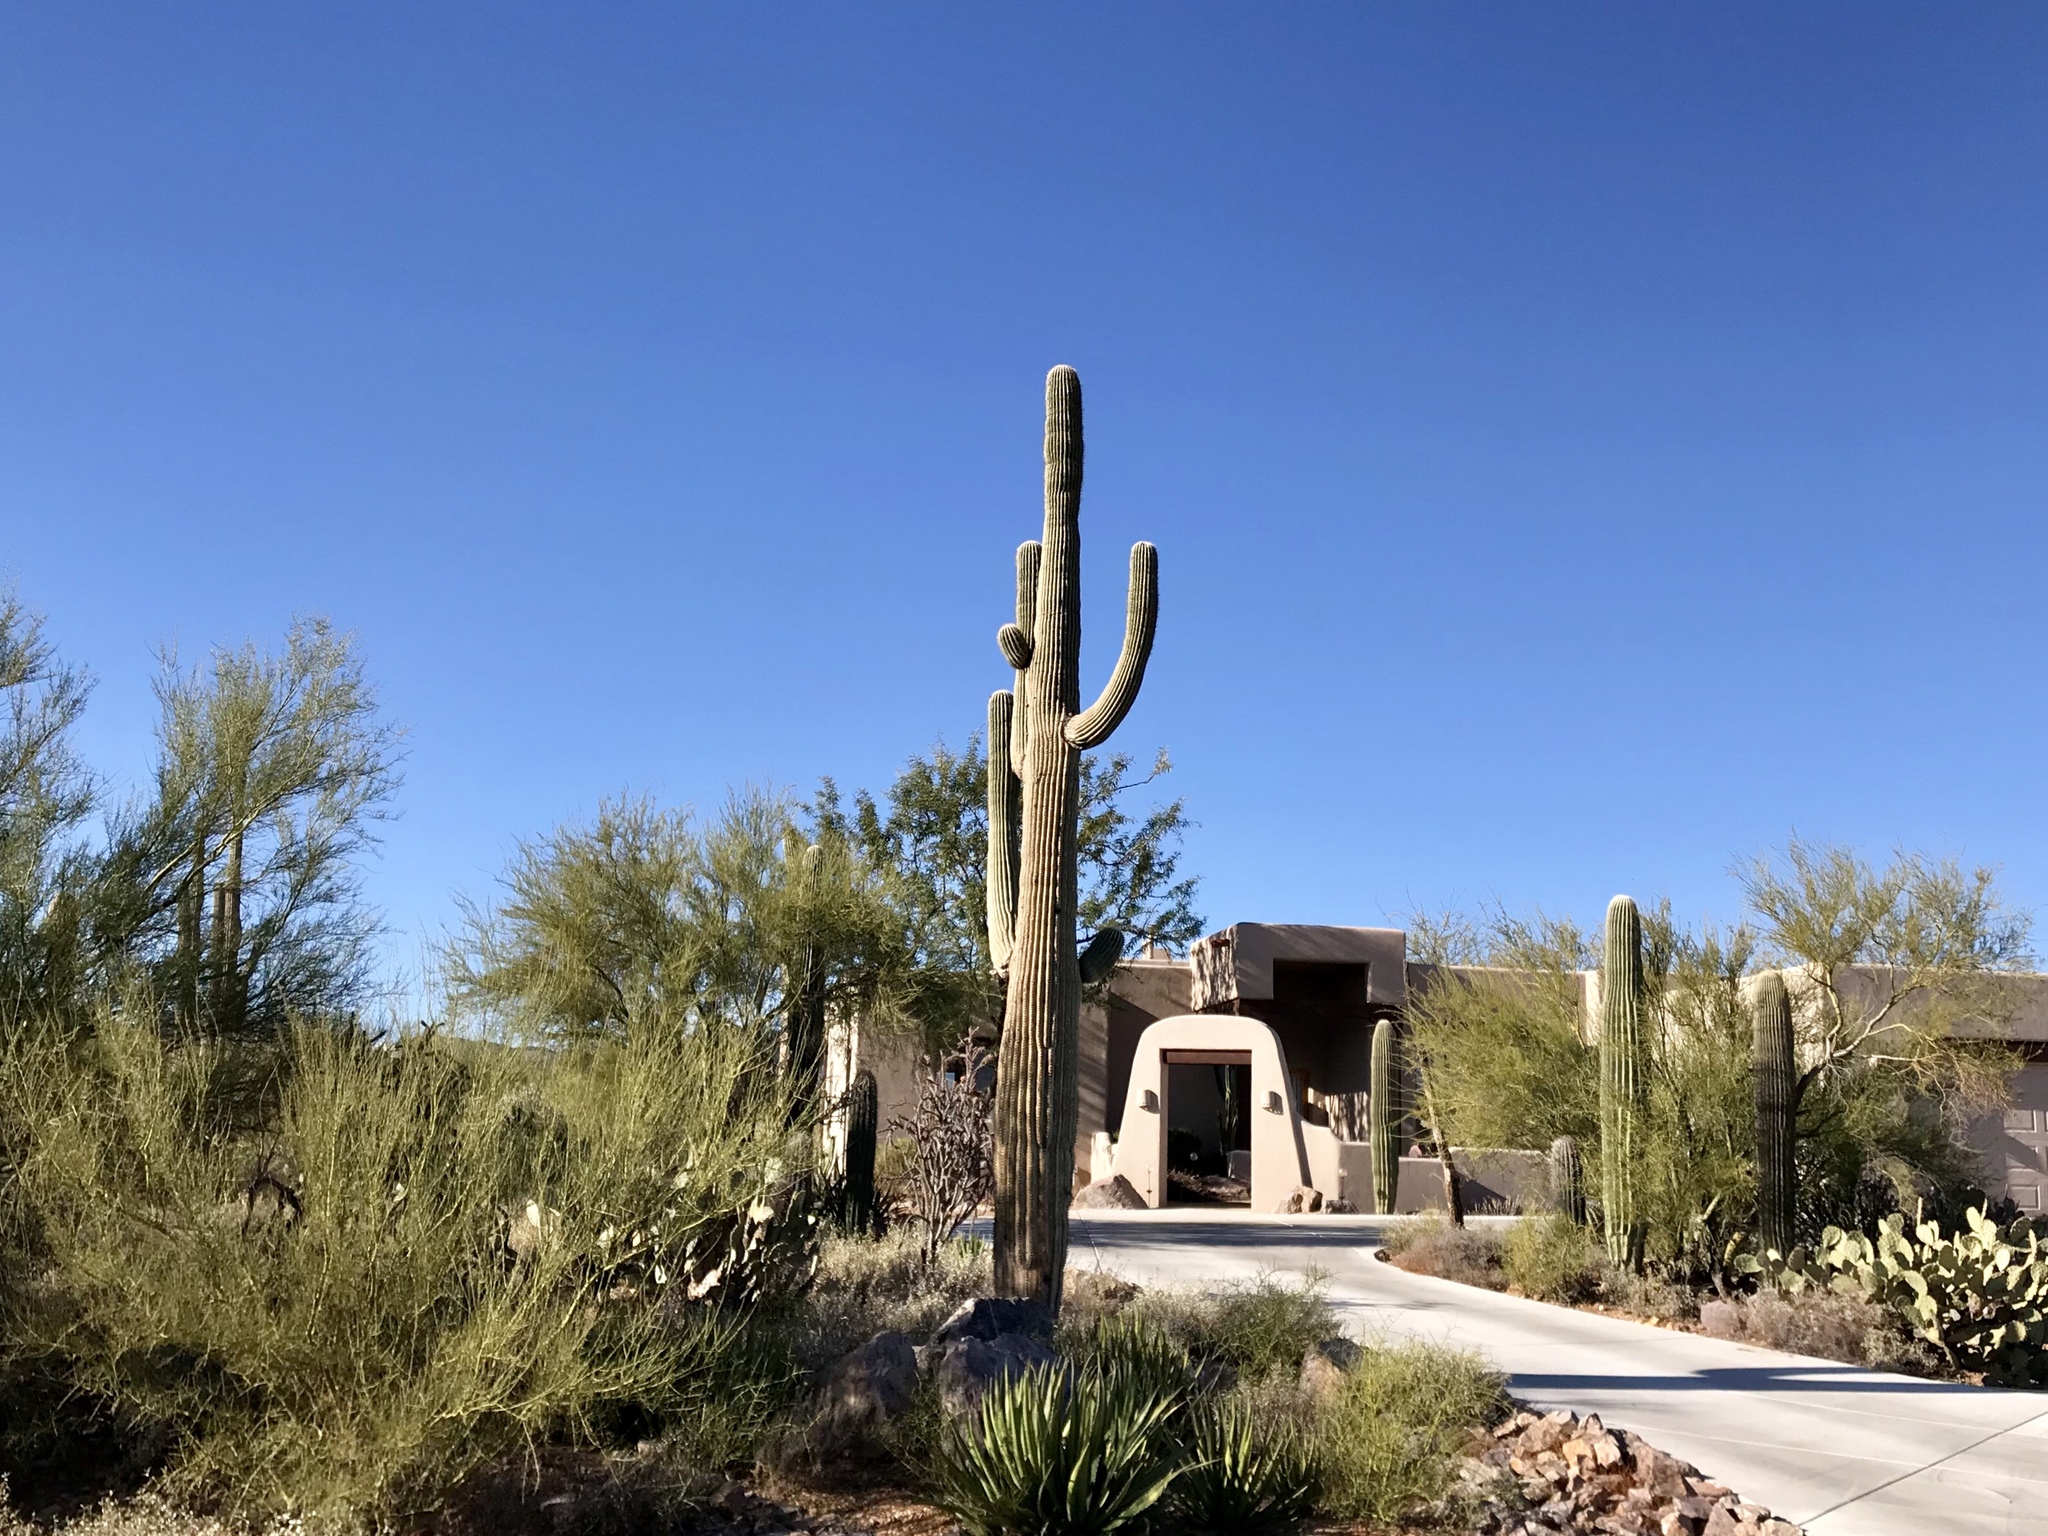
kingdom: Plantae
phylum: Tracheophyta
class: Magnoliopsida
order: Caryophyllales
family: Cactaceae
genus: Carnegiea
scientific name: Carnegiea gigantea
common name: Saguaro
